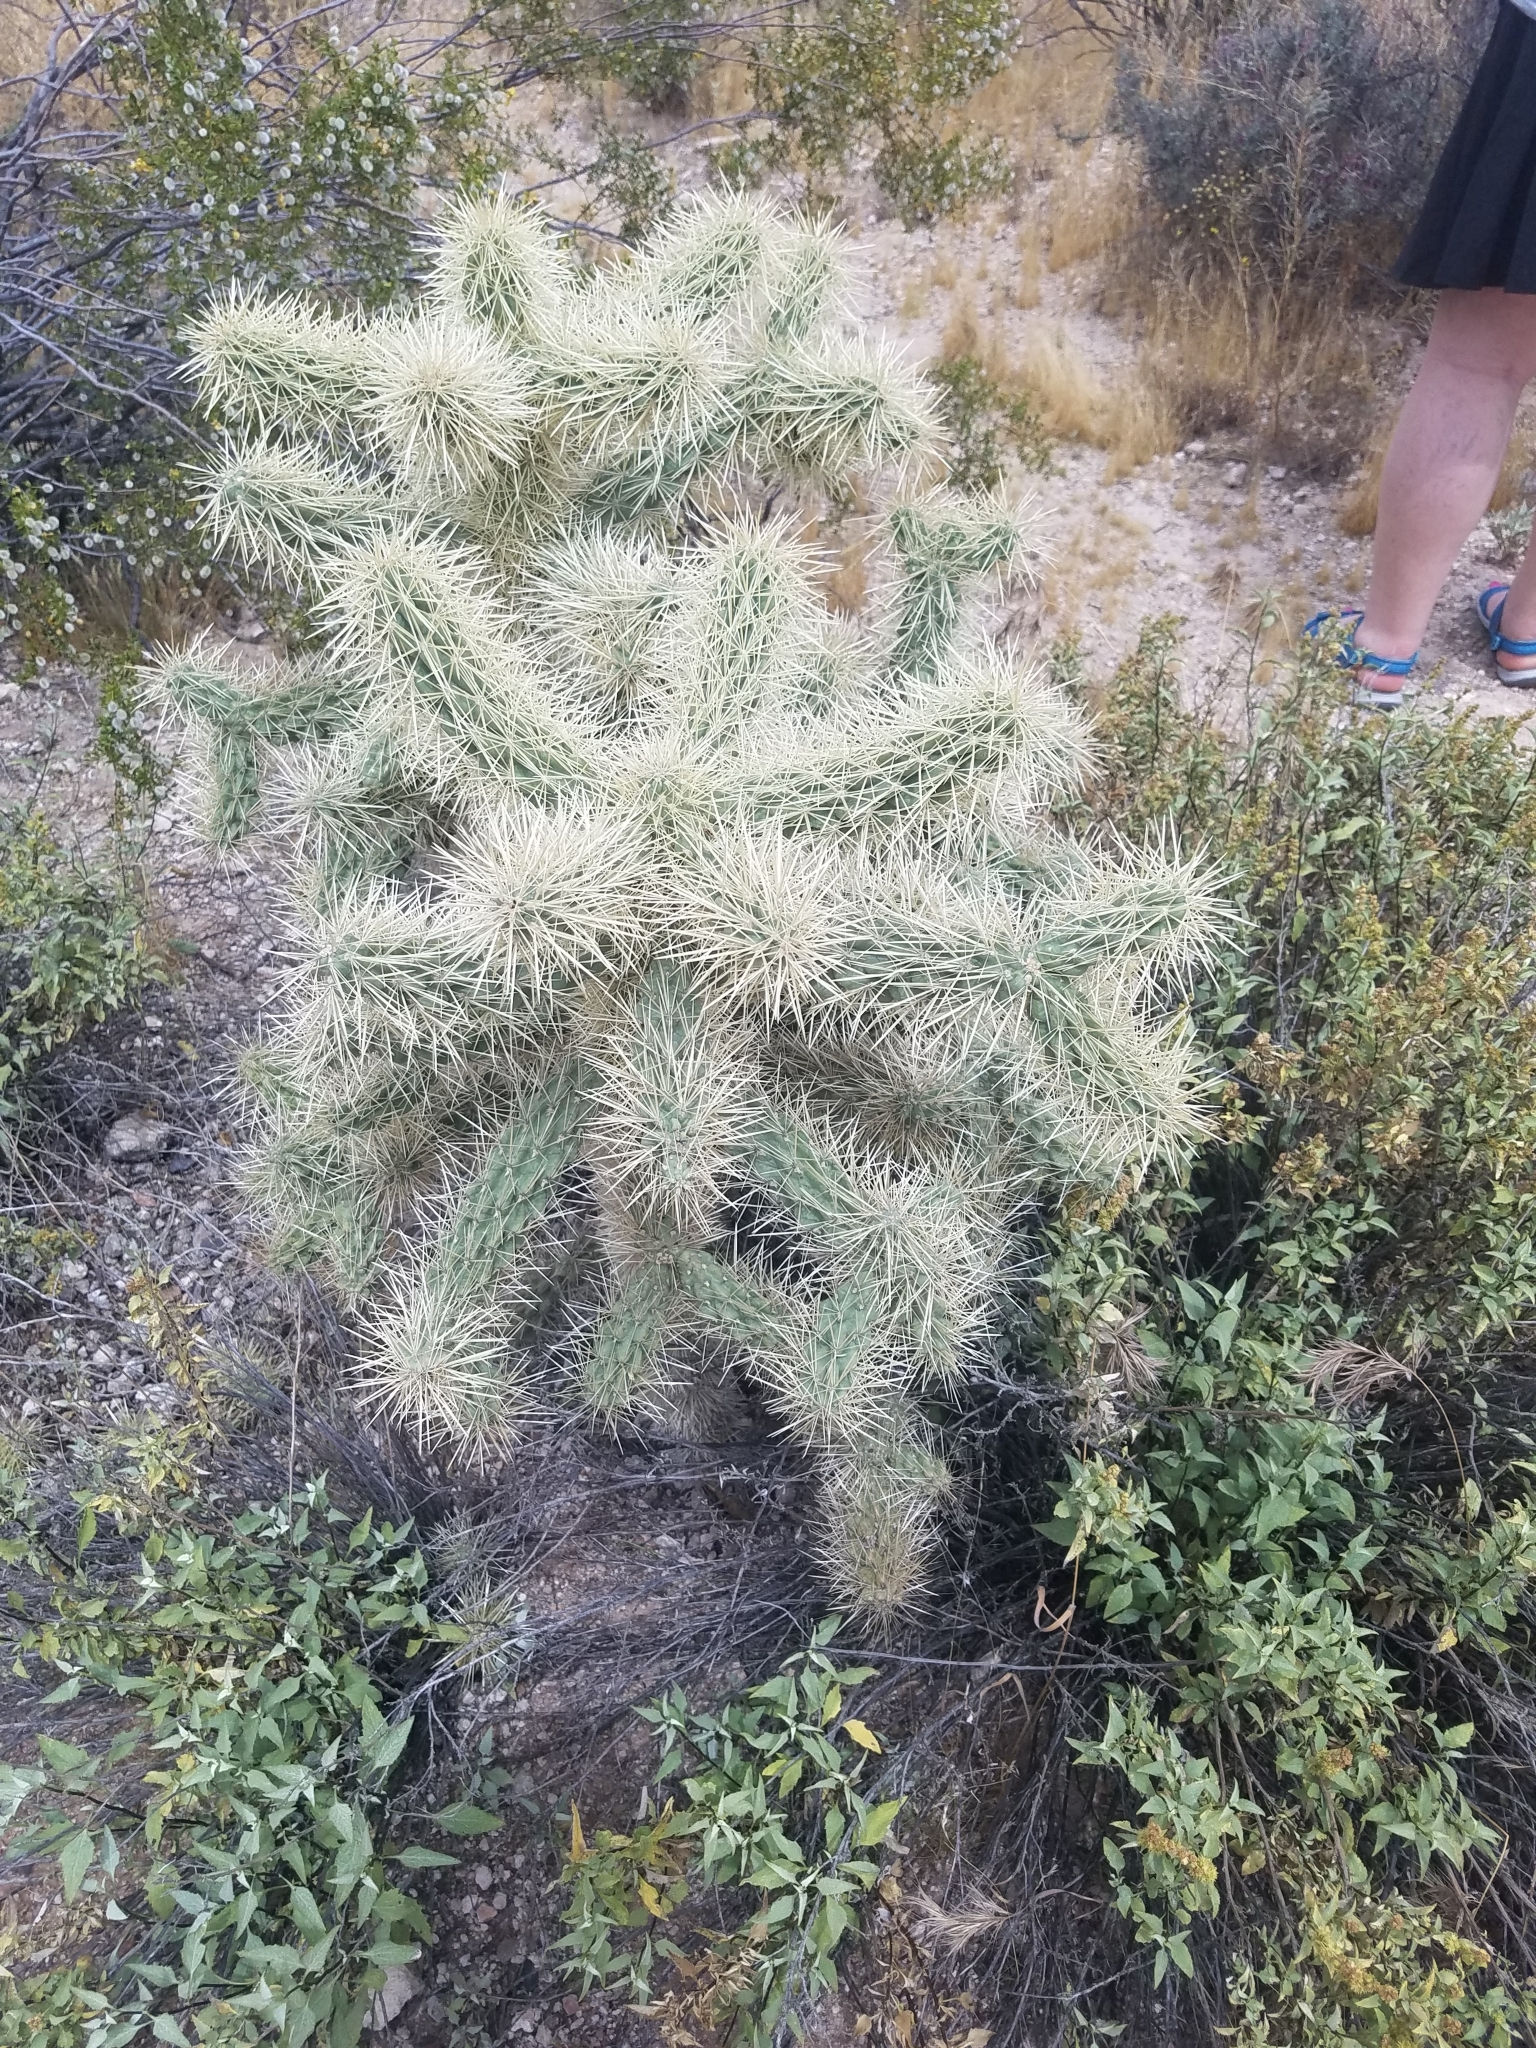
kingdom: Plantae
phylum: Tracheophyta
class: Magnoliopsida
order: Caryophyllales
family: Cactaceae
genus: Cylindropuntia
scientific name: Cylindropuntia fosbergii
